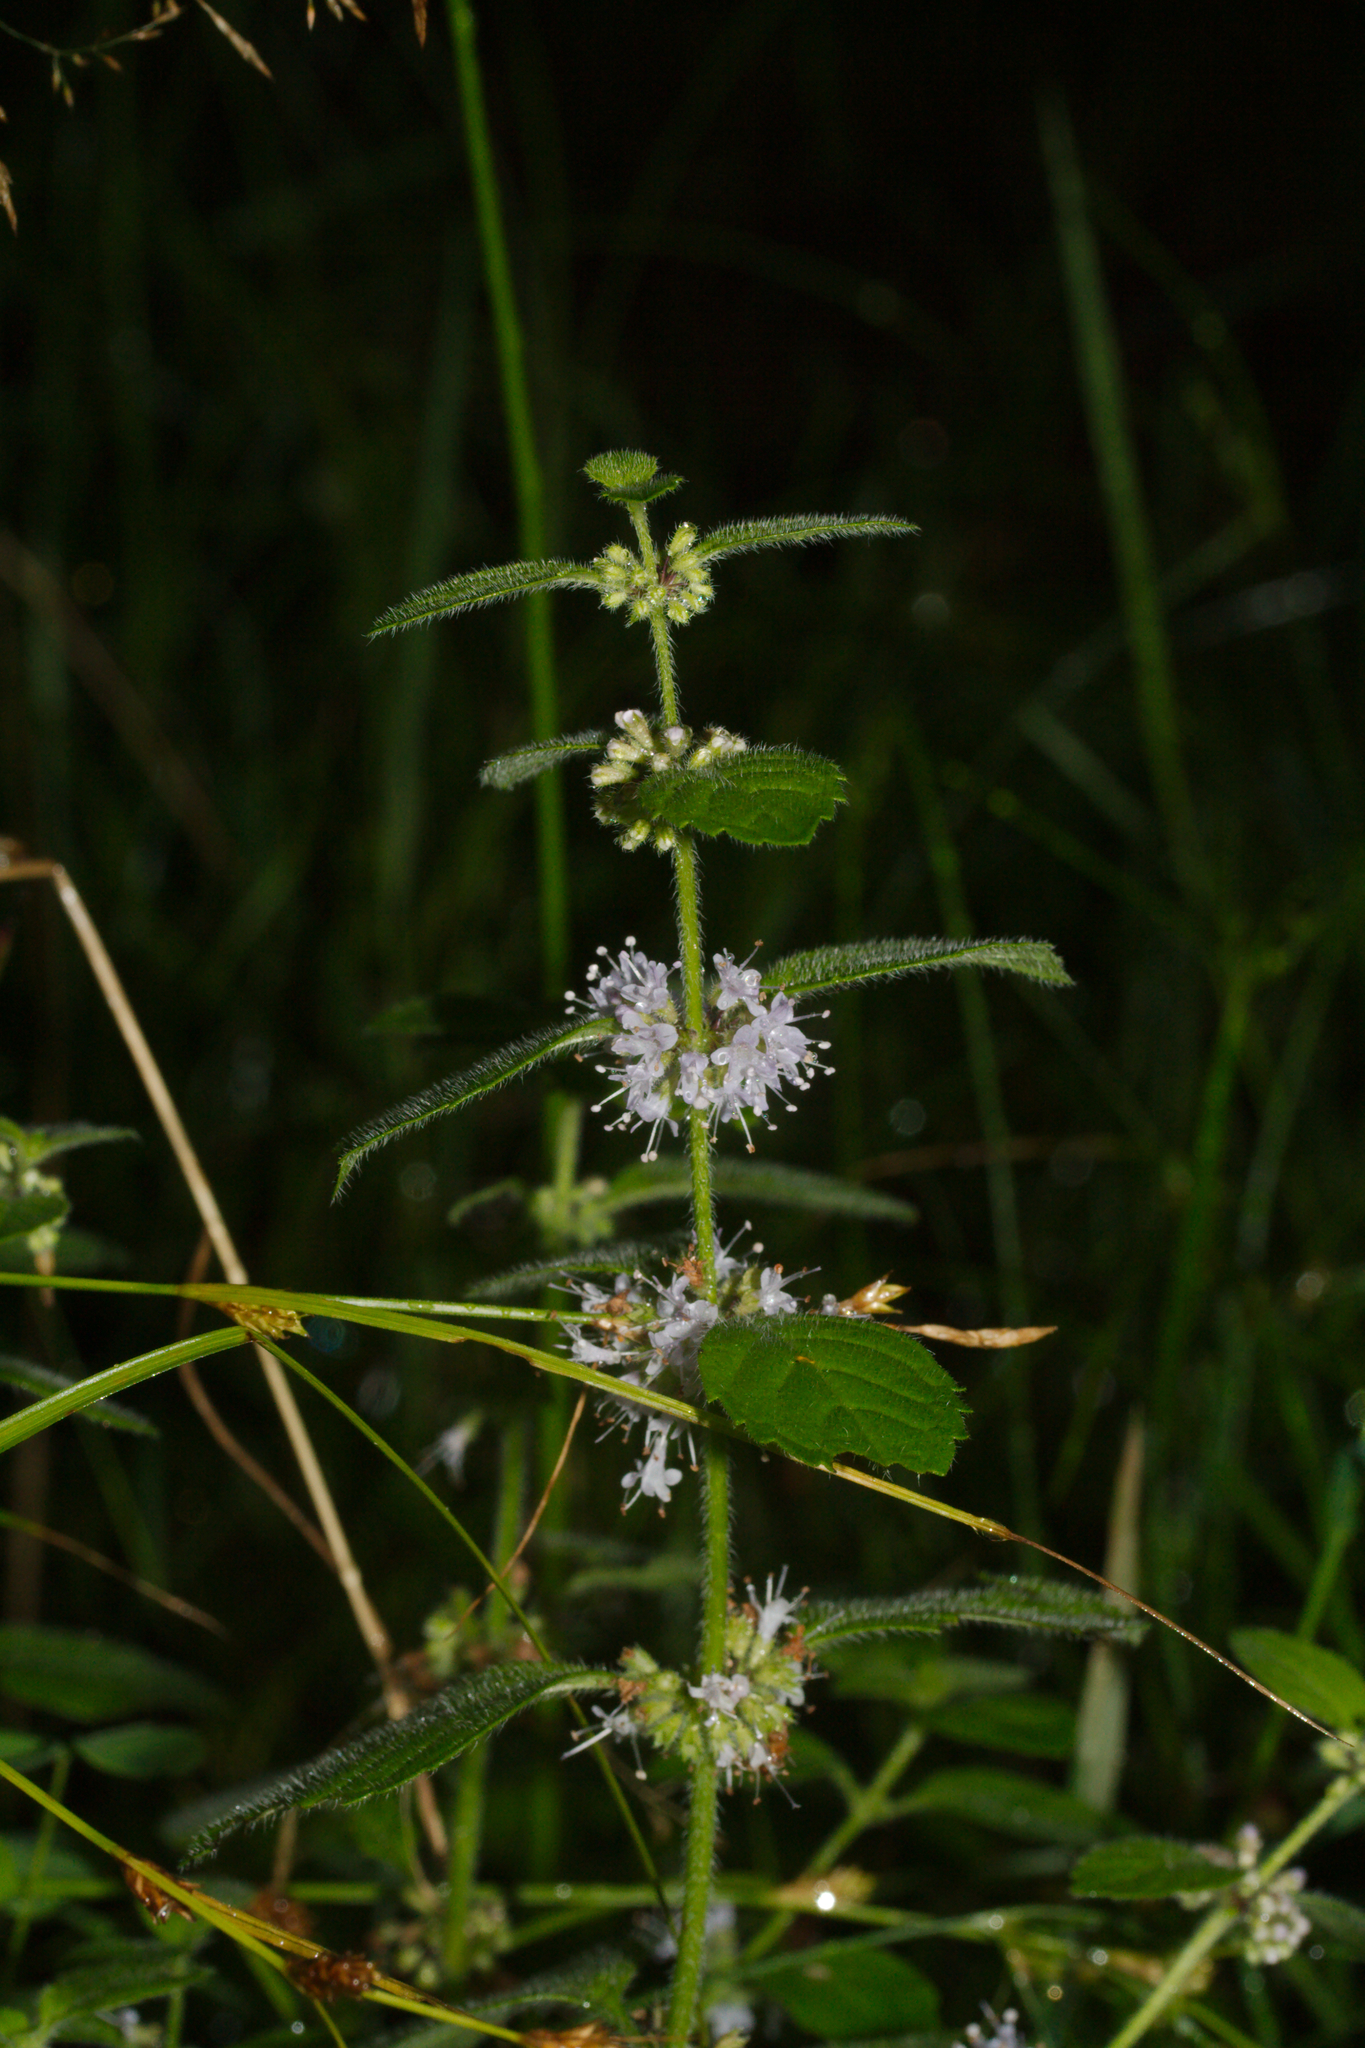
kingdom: Plantae
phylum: Tracheophyta
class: Magnoliopsida
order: Lamiales
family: Lamiaceae
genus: Mentha
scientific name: Mentha arvensis
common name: Corn mint
